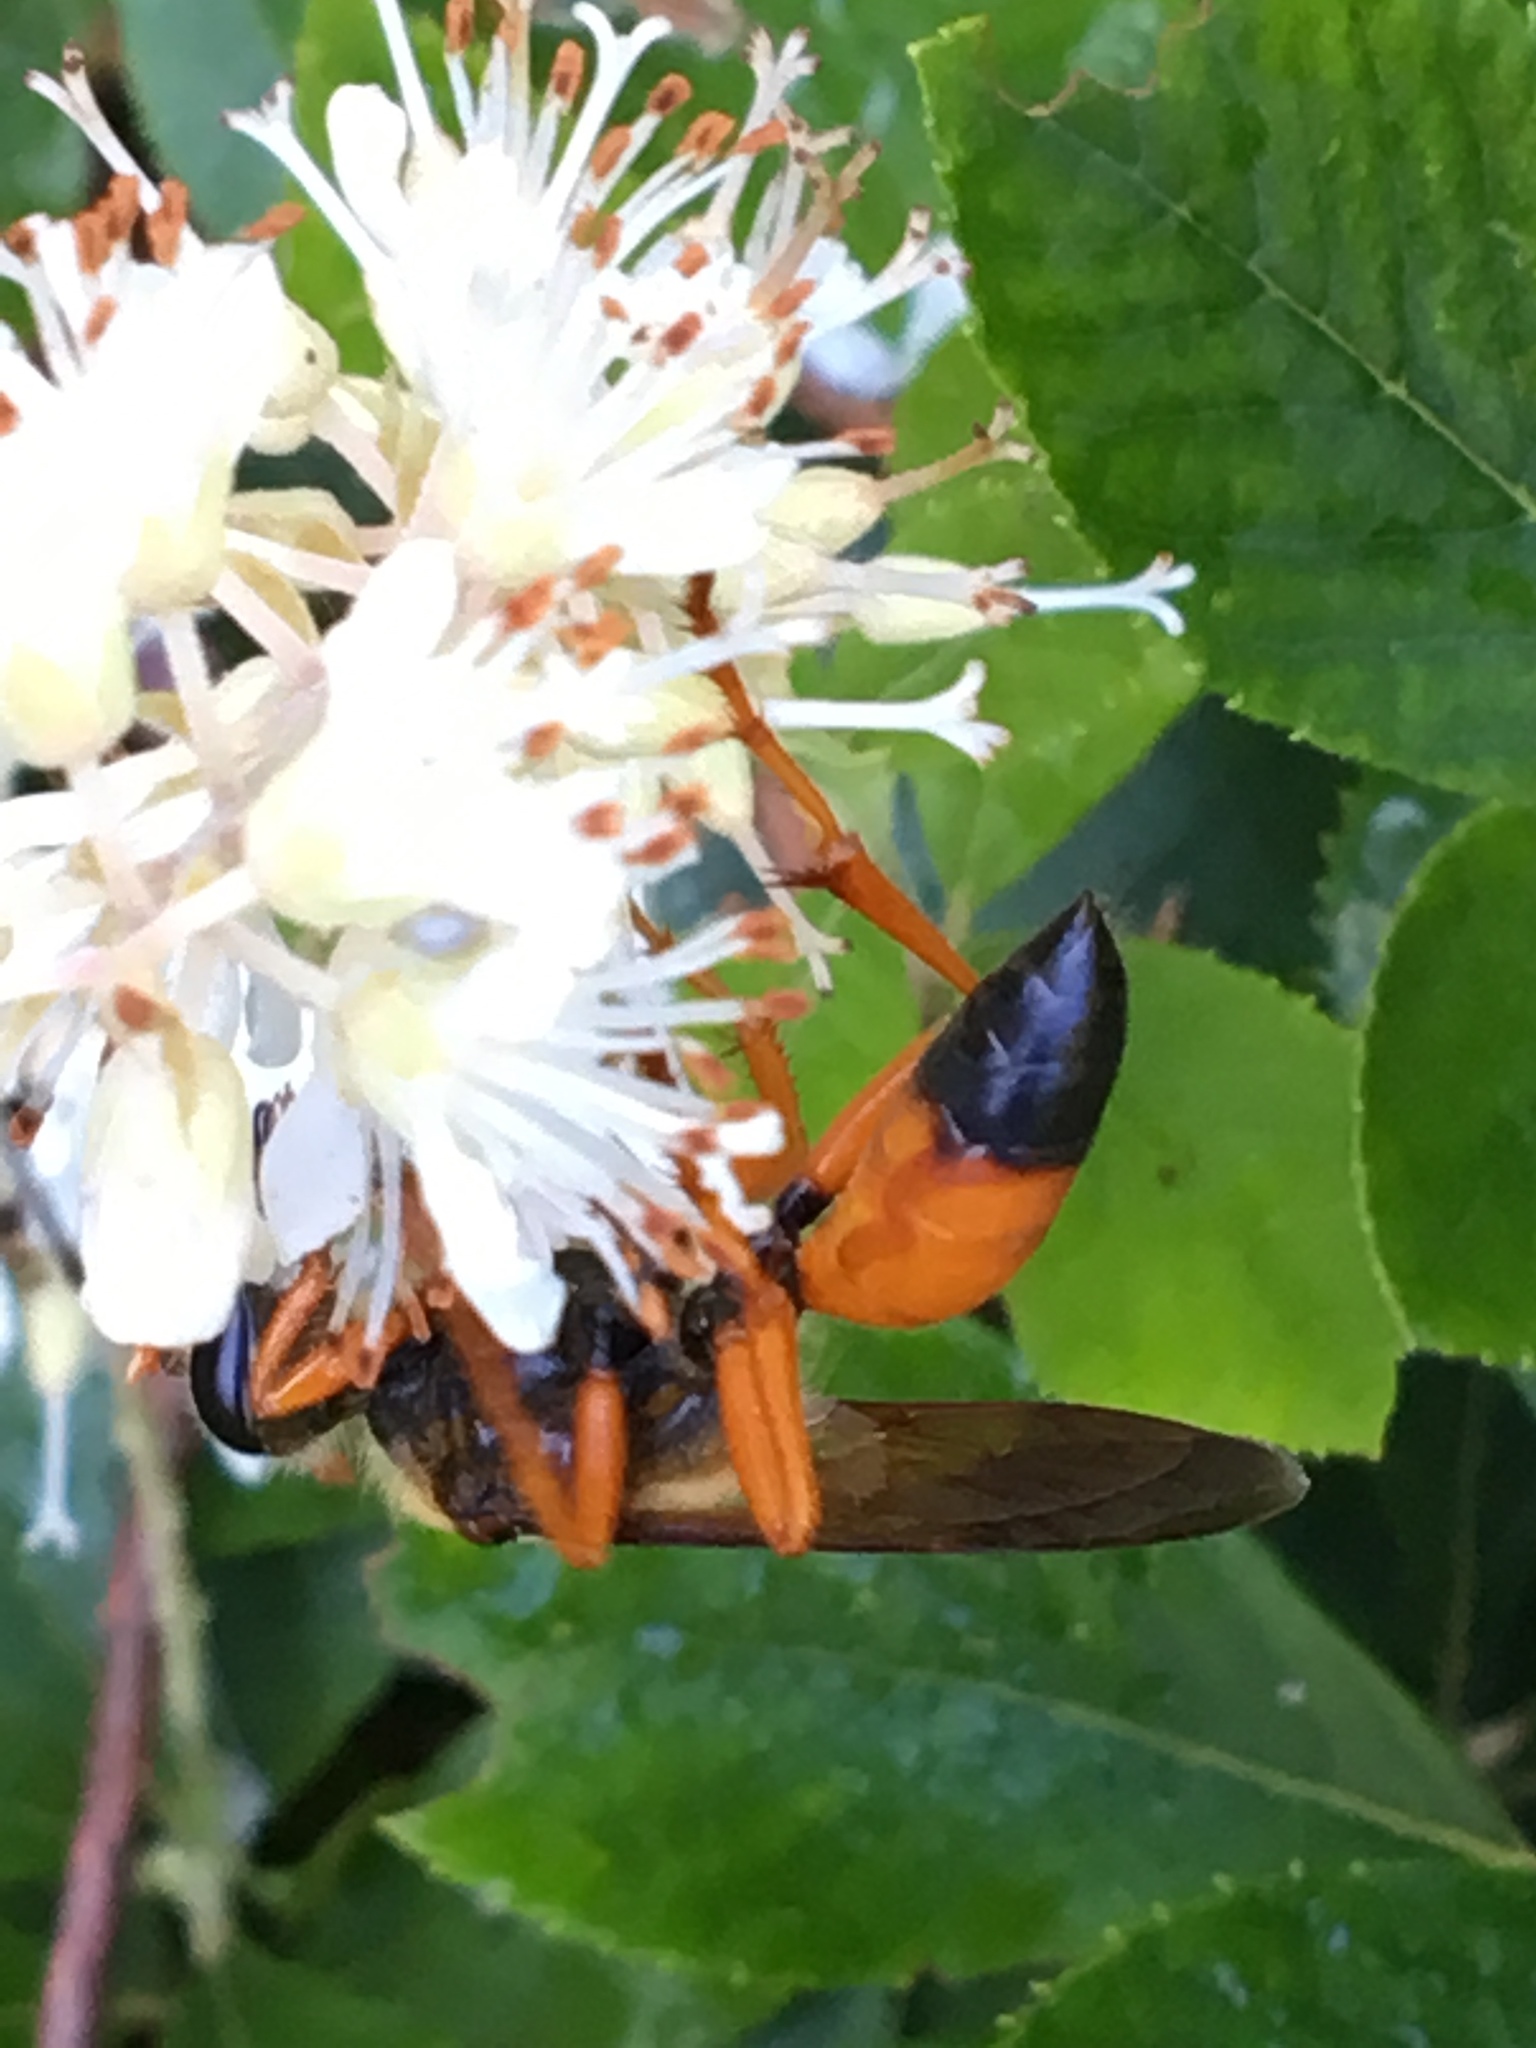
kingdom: Animalia
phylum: Arthropoda
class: Insecta
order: Hymenoptera
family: Sphecidae
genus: Sphex
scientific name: Sphex ichneumoneus
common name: Great golden digger wasp
